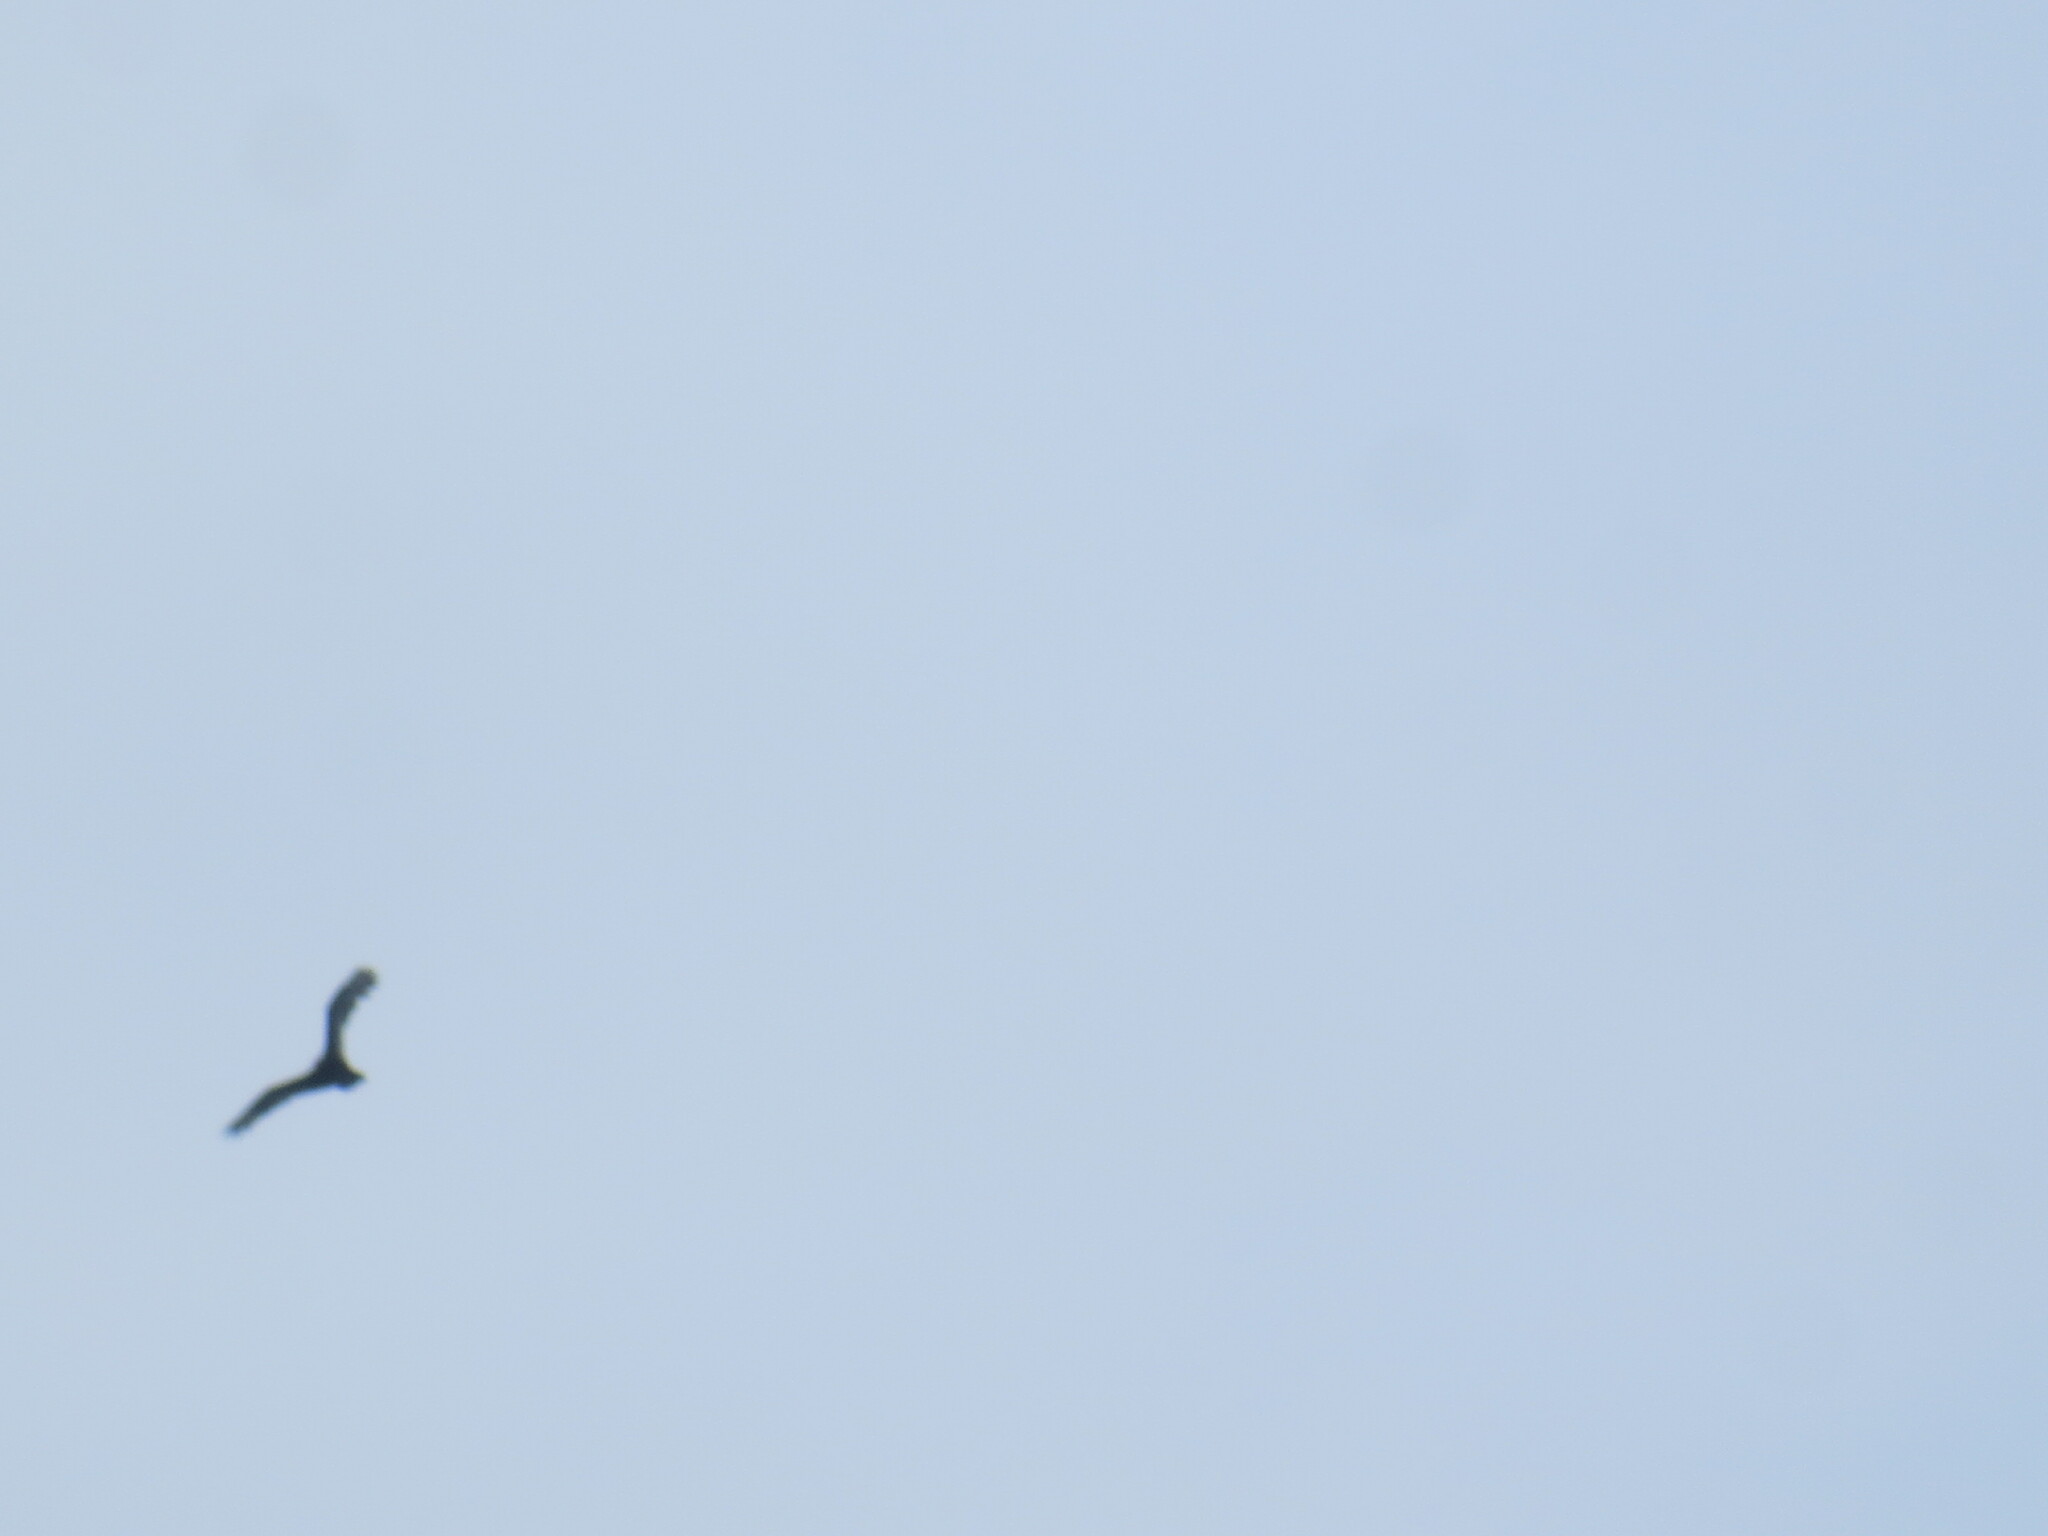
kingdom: Animalia
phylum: Chordata
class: Aves
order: Accipitriformes
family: Cathartidae
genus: Cathartes
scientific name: Cathartes aura
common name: Turkey vulture
